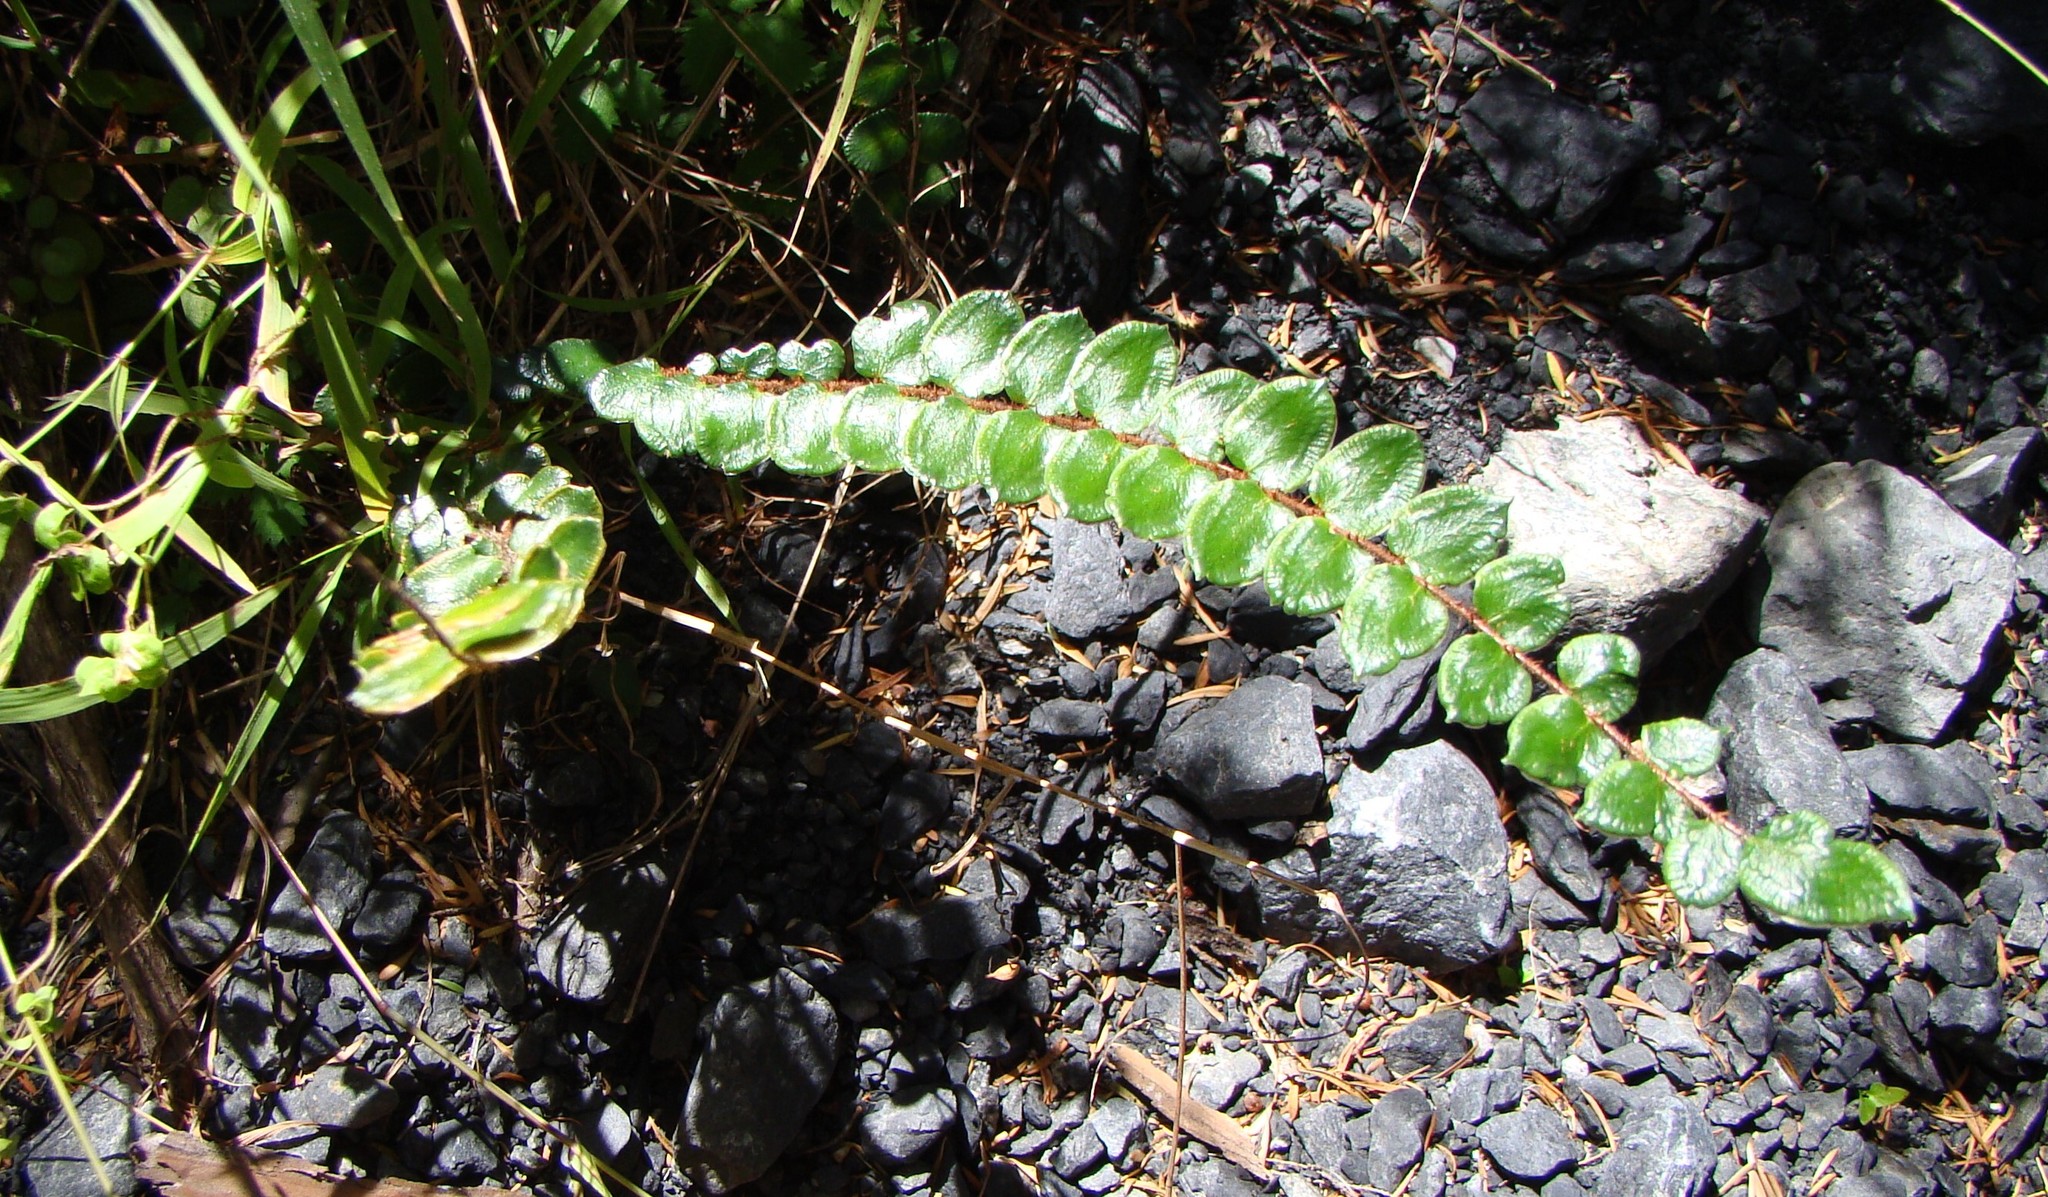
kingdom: Plantae
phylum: Tracheophyta
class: Polypodiopsida
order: Polypodiales
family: Pteridaceae
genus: Pellaea
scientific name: Pellaea rotundifolia
